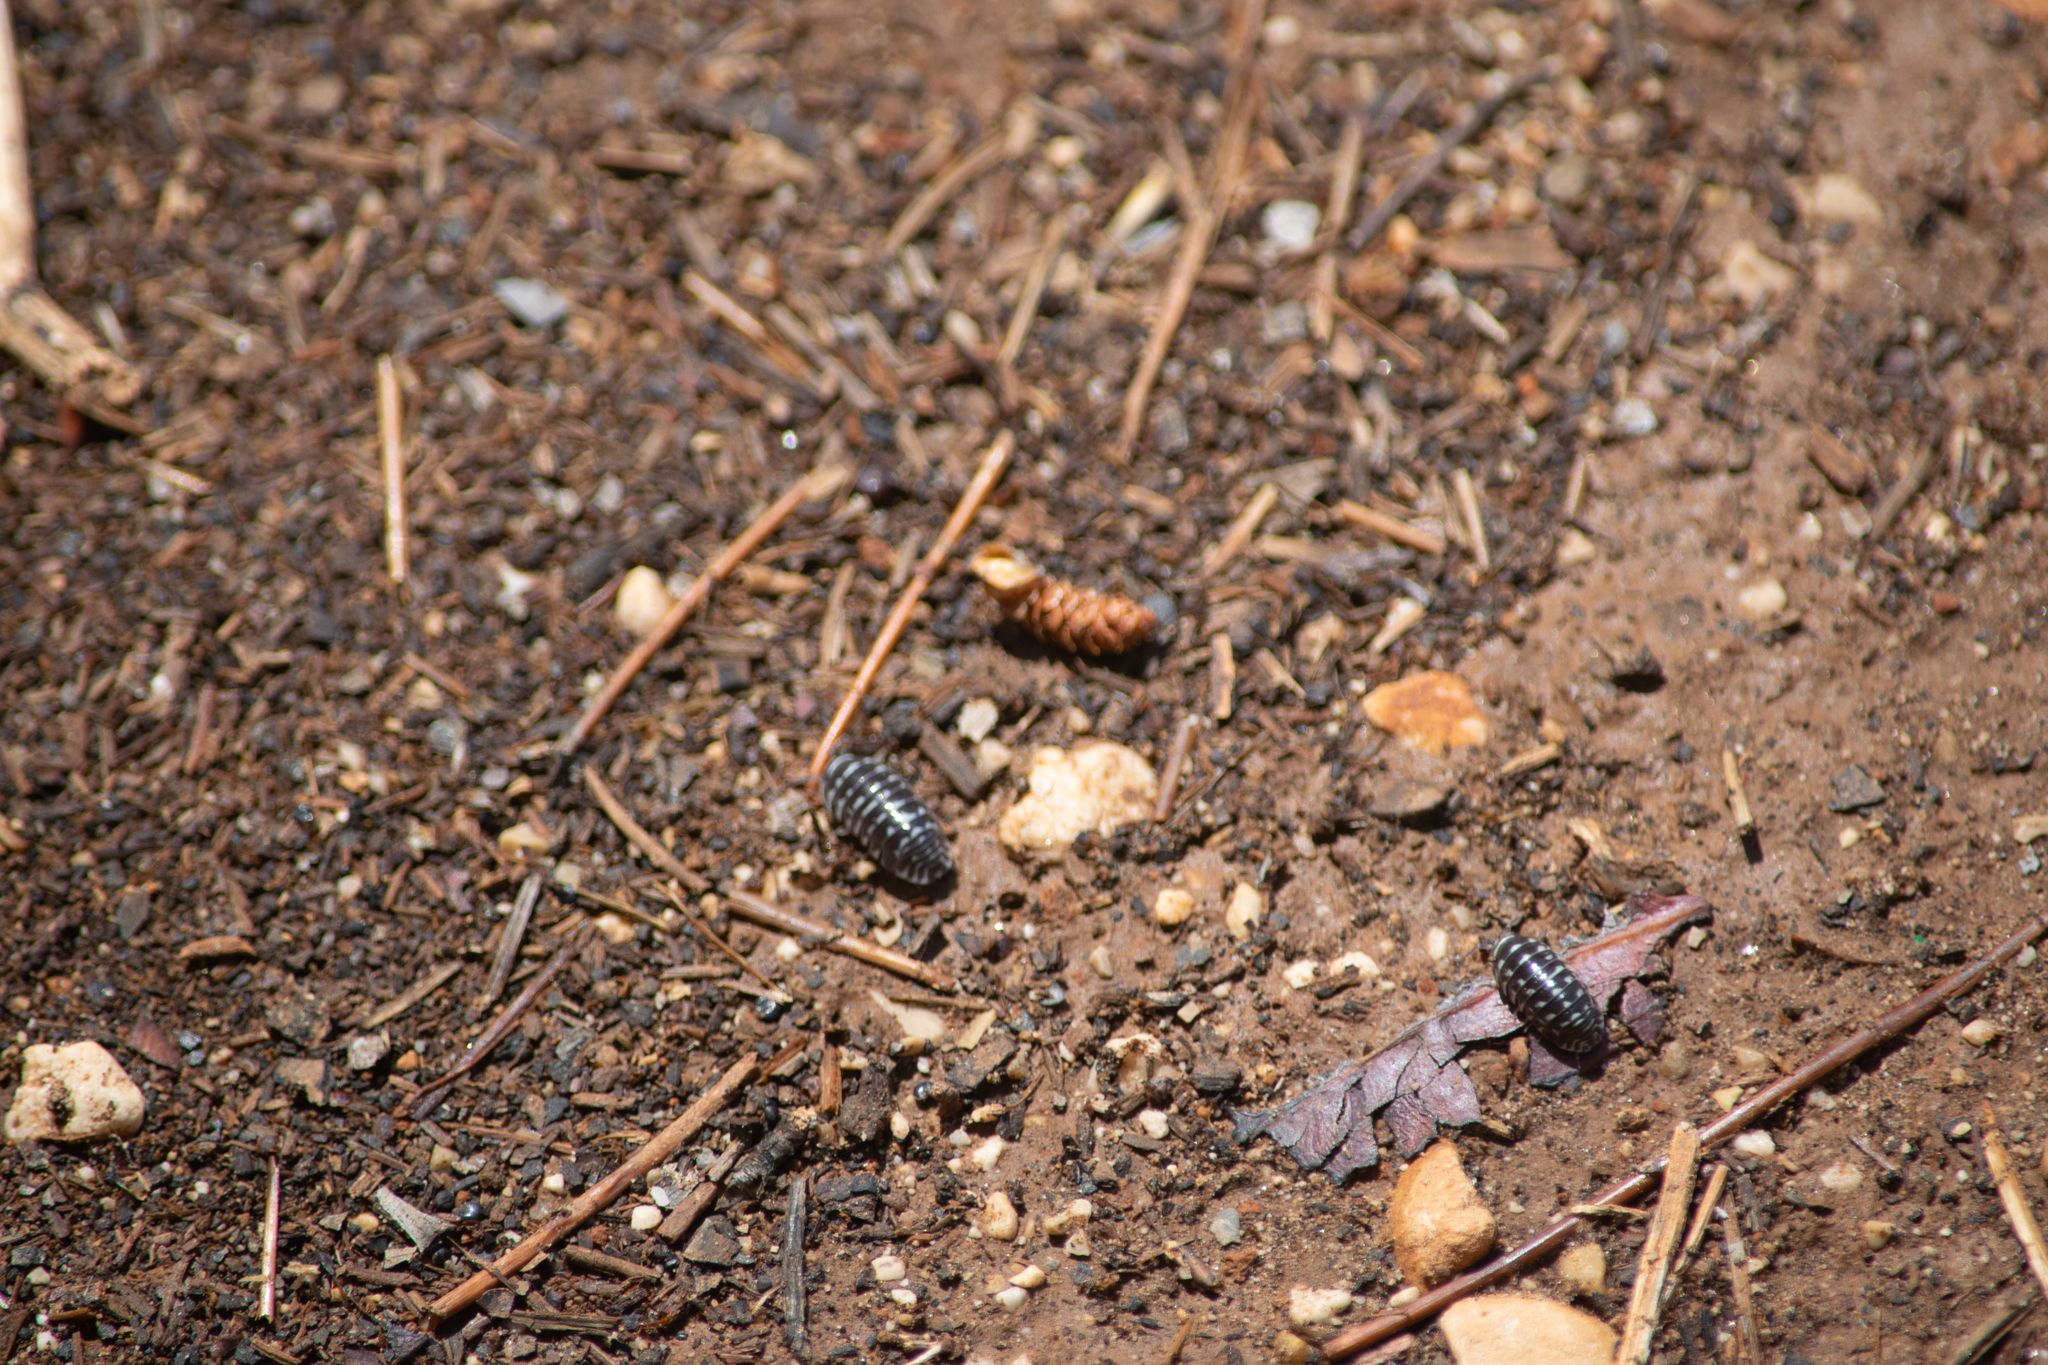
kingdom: Animalia
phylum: Arthropoda
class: Malacostraca
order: Isopoda
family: Armadillidiidae
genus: Armadillidium
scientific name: Armadillidium maculatum
